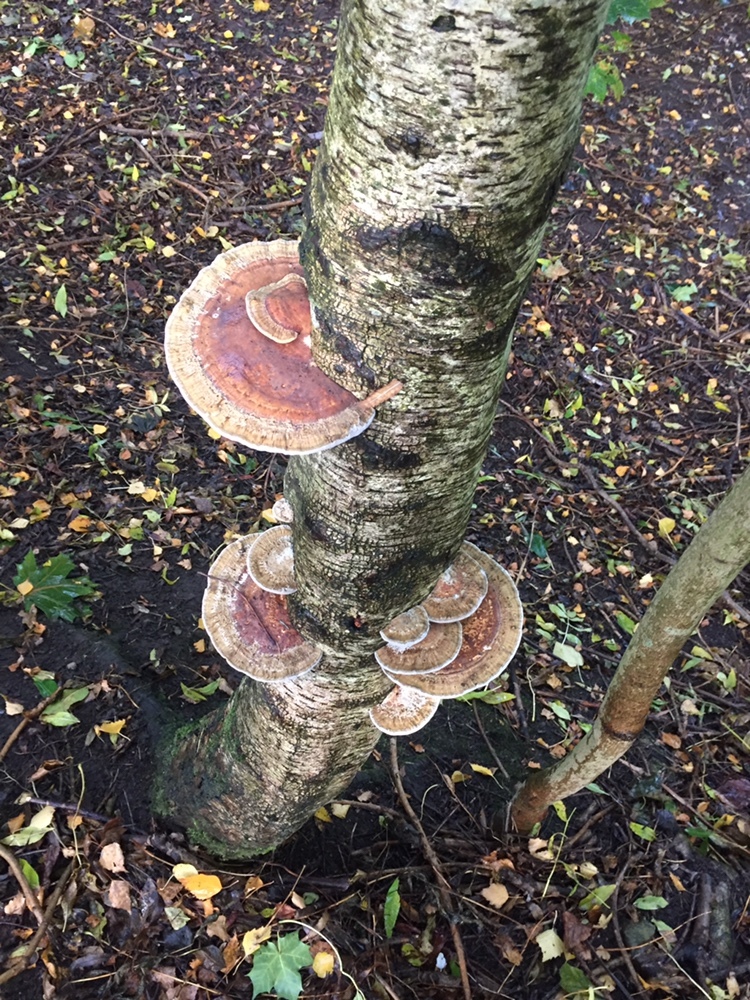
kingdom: Fungi
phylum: Basidiomycota
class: Agaricomycetes
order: Polyporales
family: Polyporaceae
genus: Daedaleopsis
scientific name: Daedaleopsis confragosa
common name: Blushing bracket
